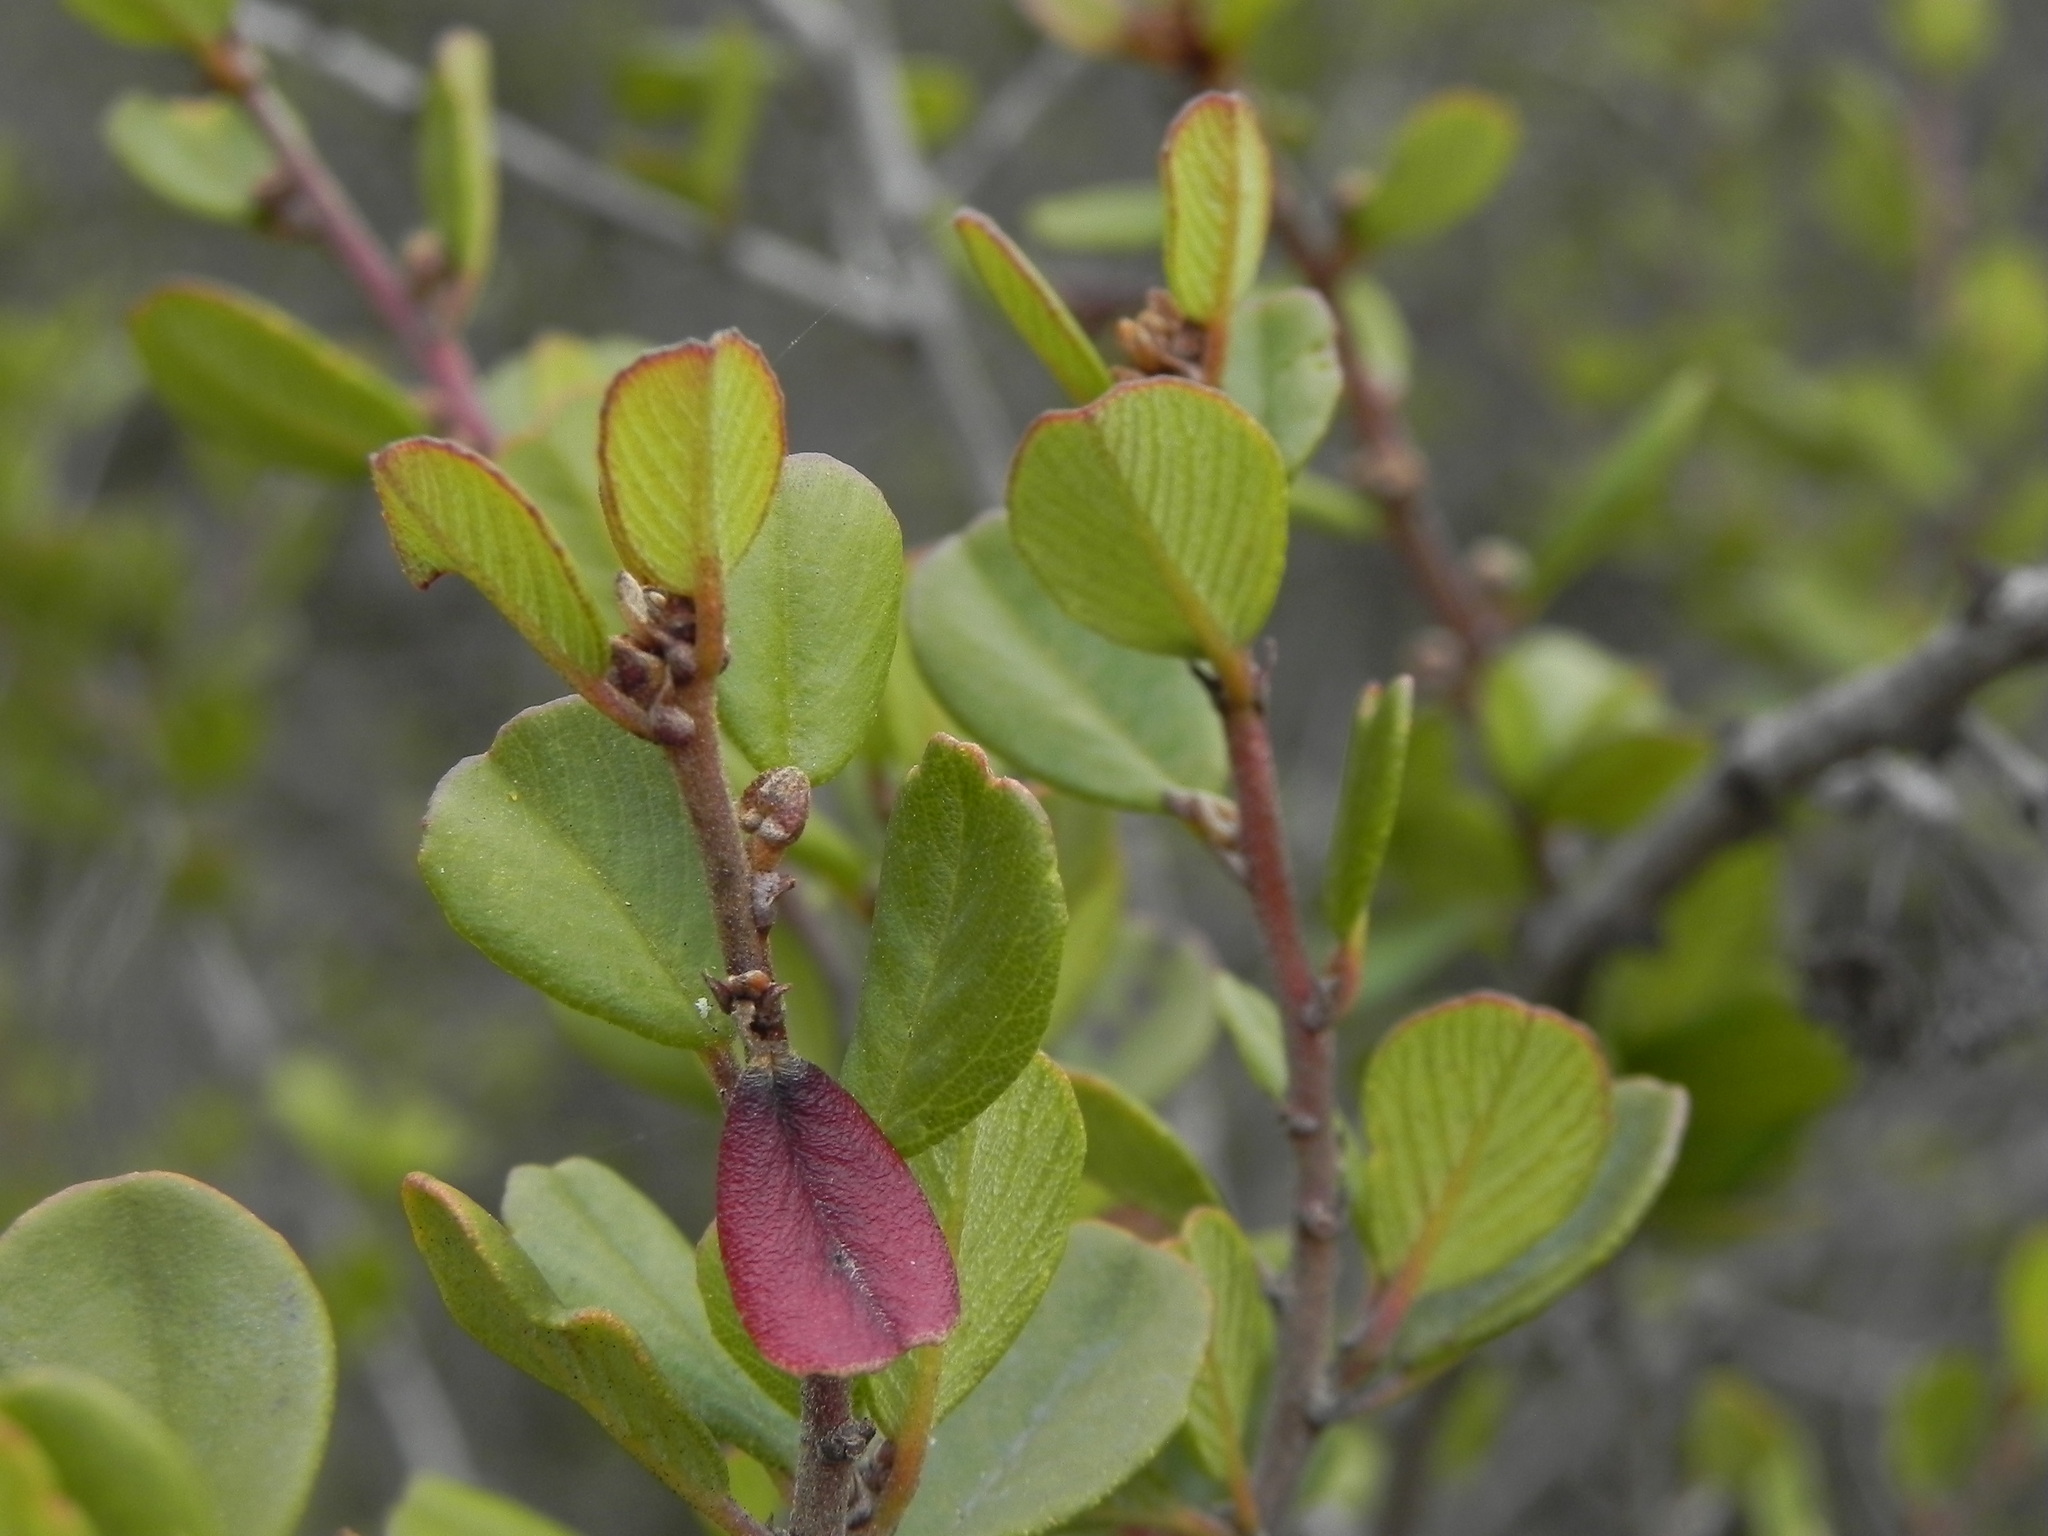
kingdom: Plantae
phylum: Tracheophyta
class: Magnoliopsida
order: Rosales
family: Rhamnaceae
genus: Ceanothus
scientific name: Ceanothus verrucosus
